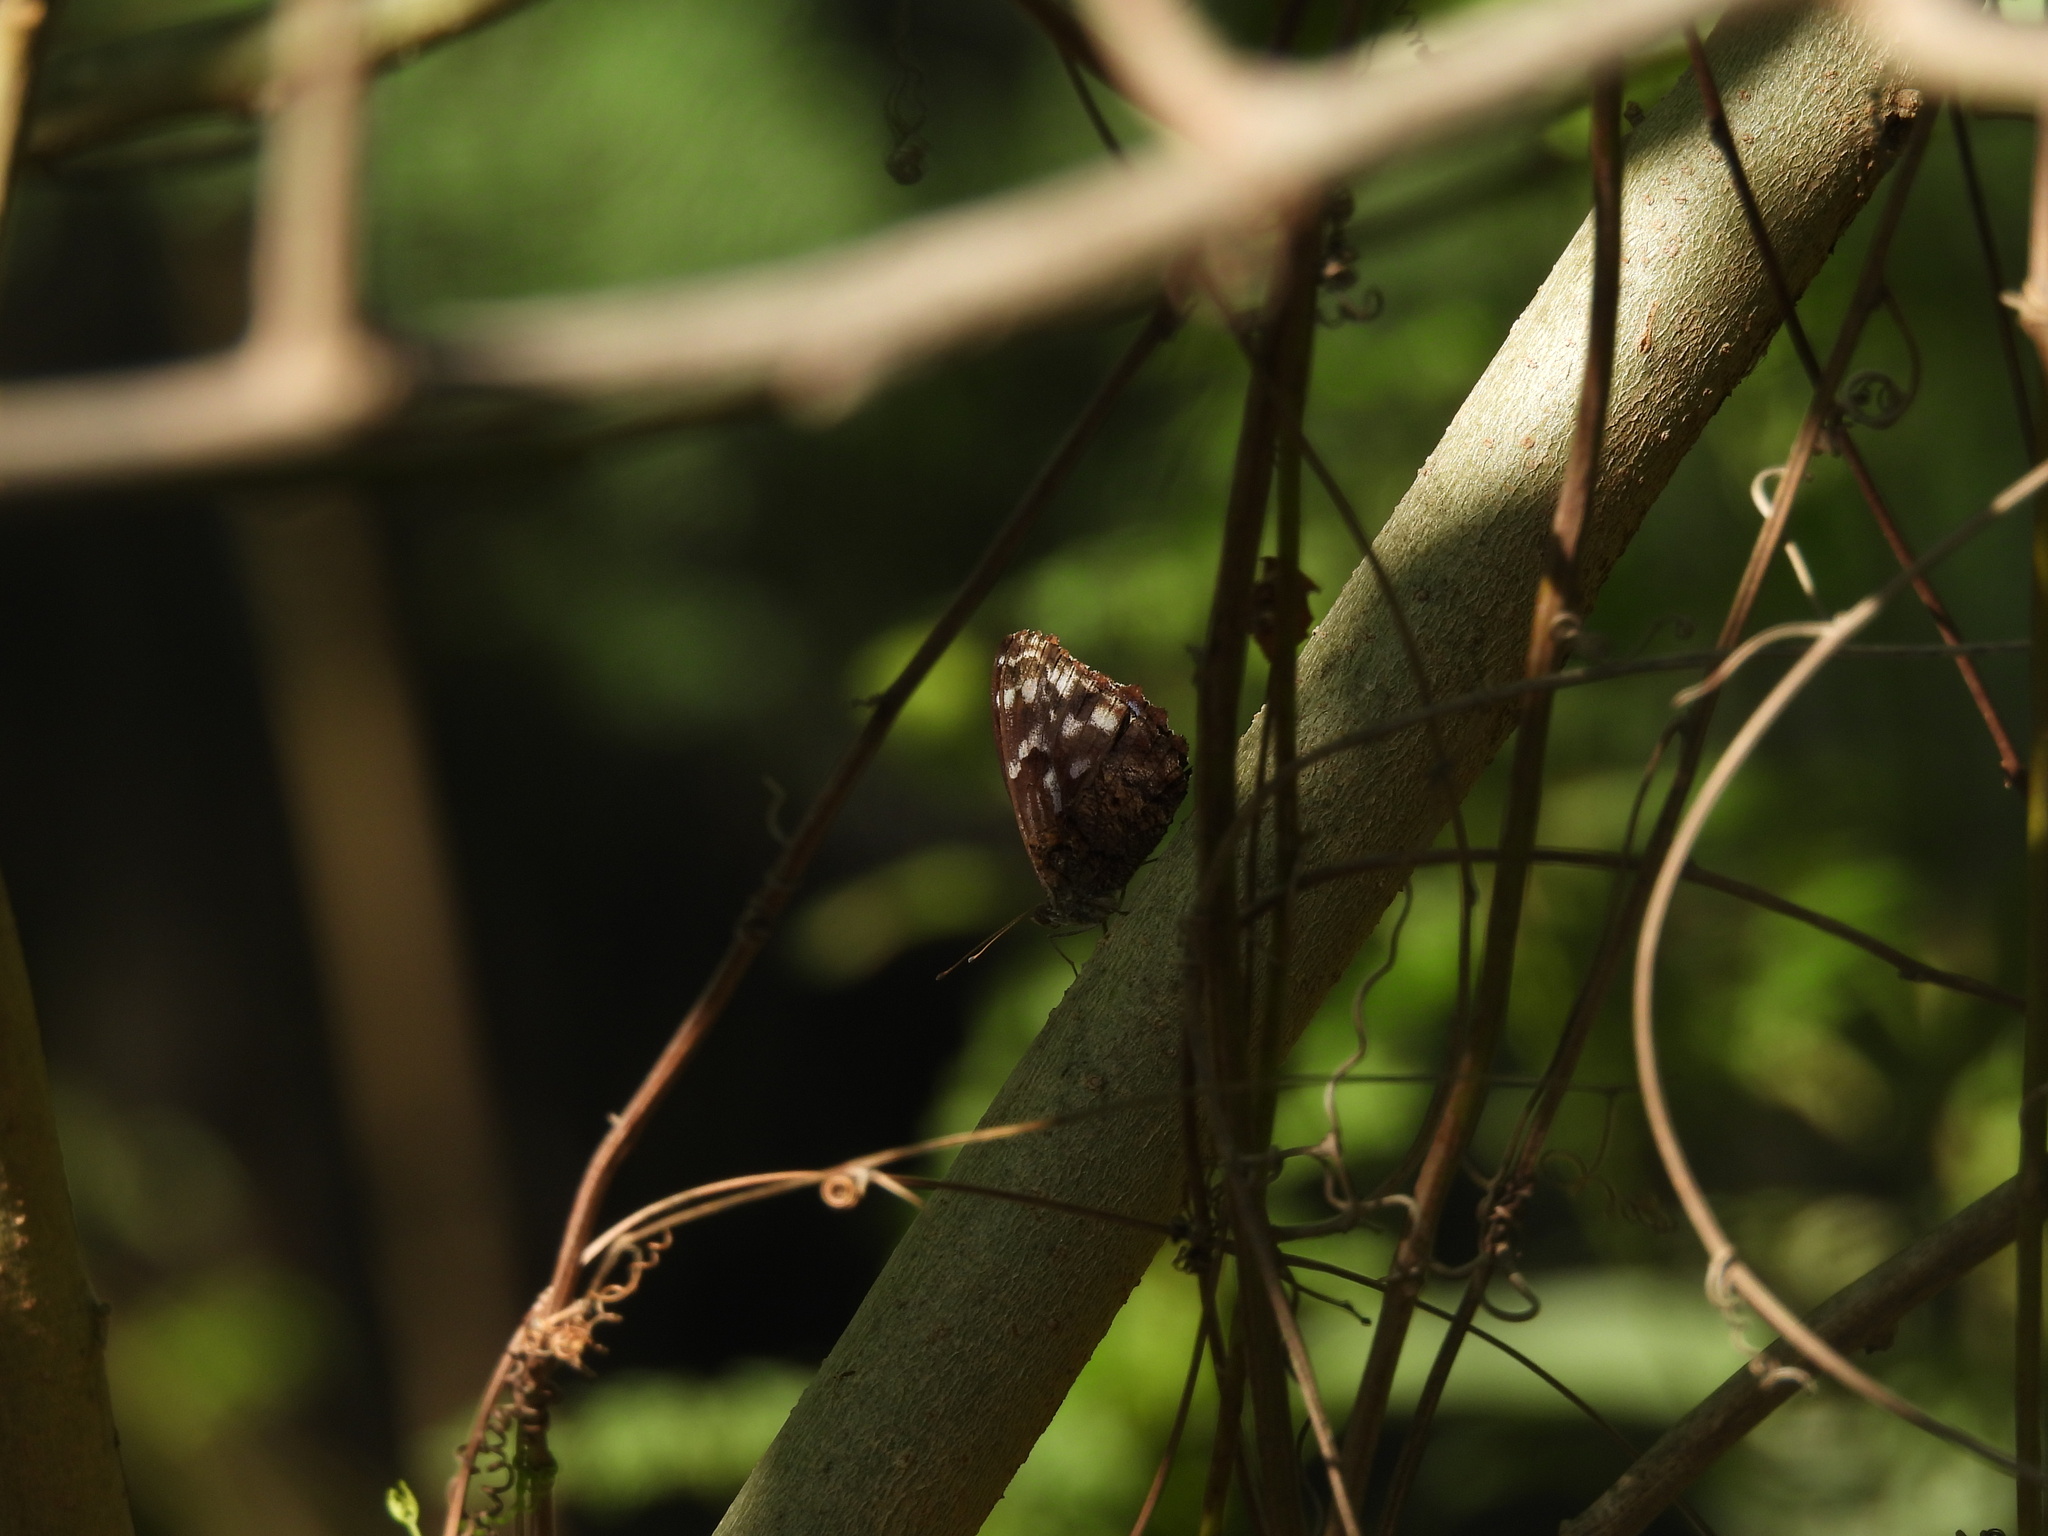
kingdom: Animalia
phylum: Arthropoda
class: Insecta
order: Lepidoptera
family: Nymphalidae
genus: Myscelia
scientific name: Myscelia ethusa
